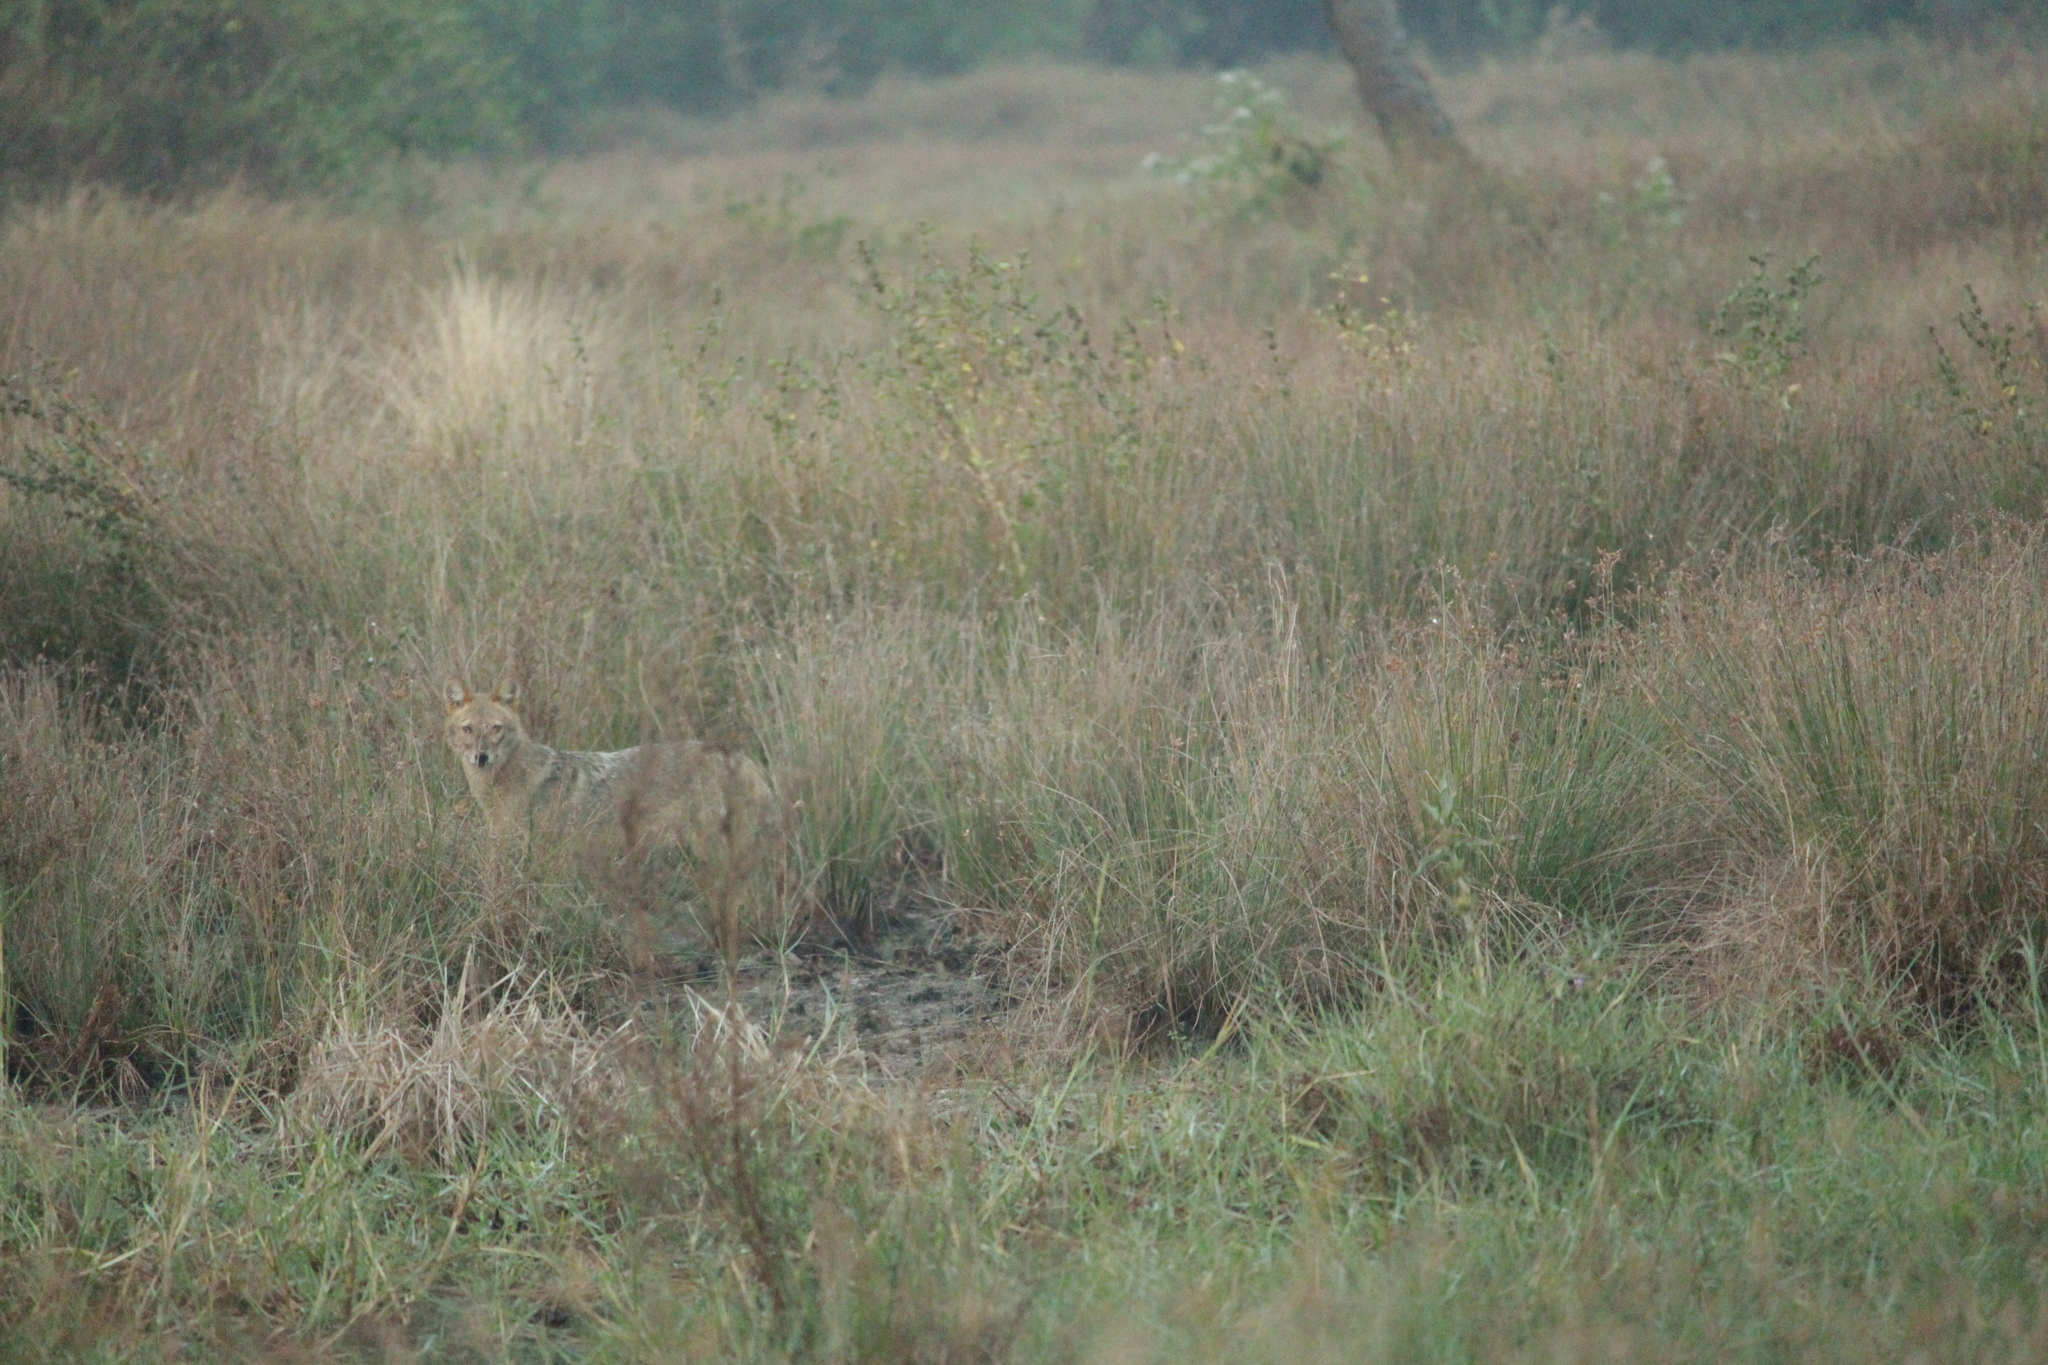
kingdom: Animalia
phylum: Chordata
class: Mammalia
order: Carnivora
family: Canidae
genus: Canis
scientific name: Canis aureus
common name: Golden jackal
